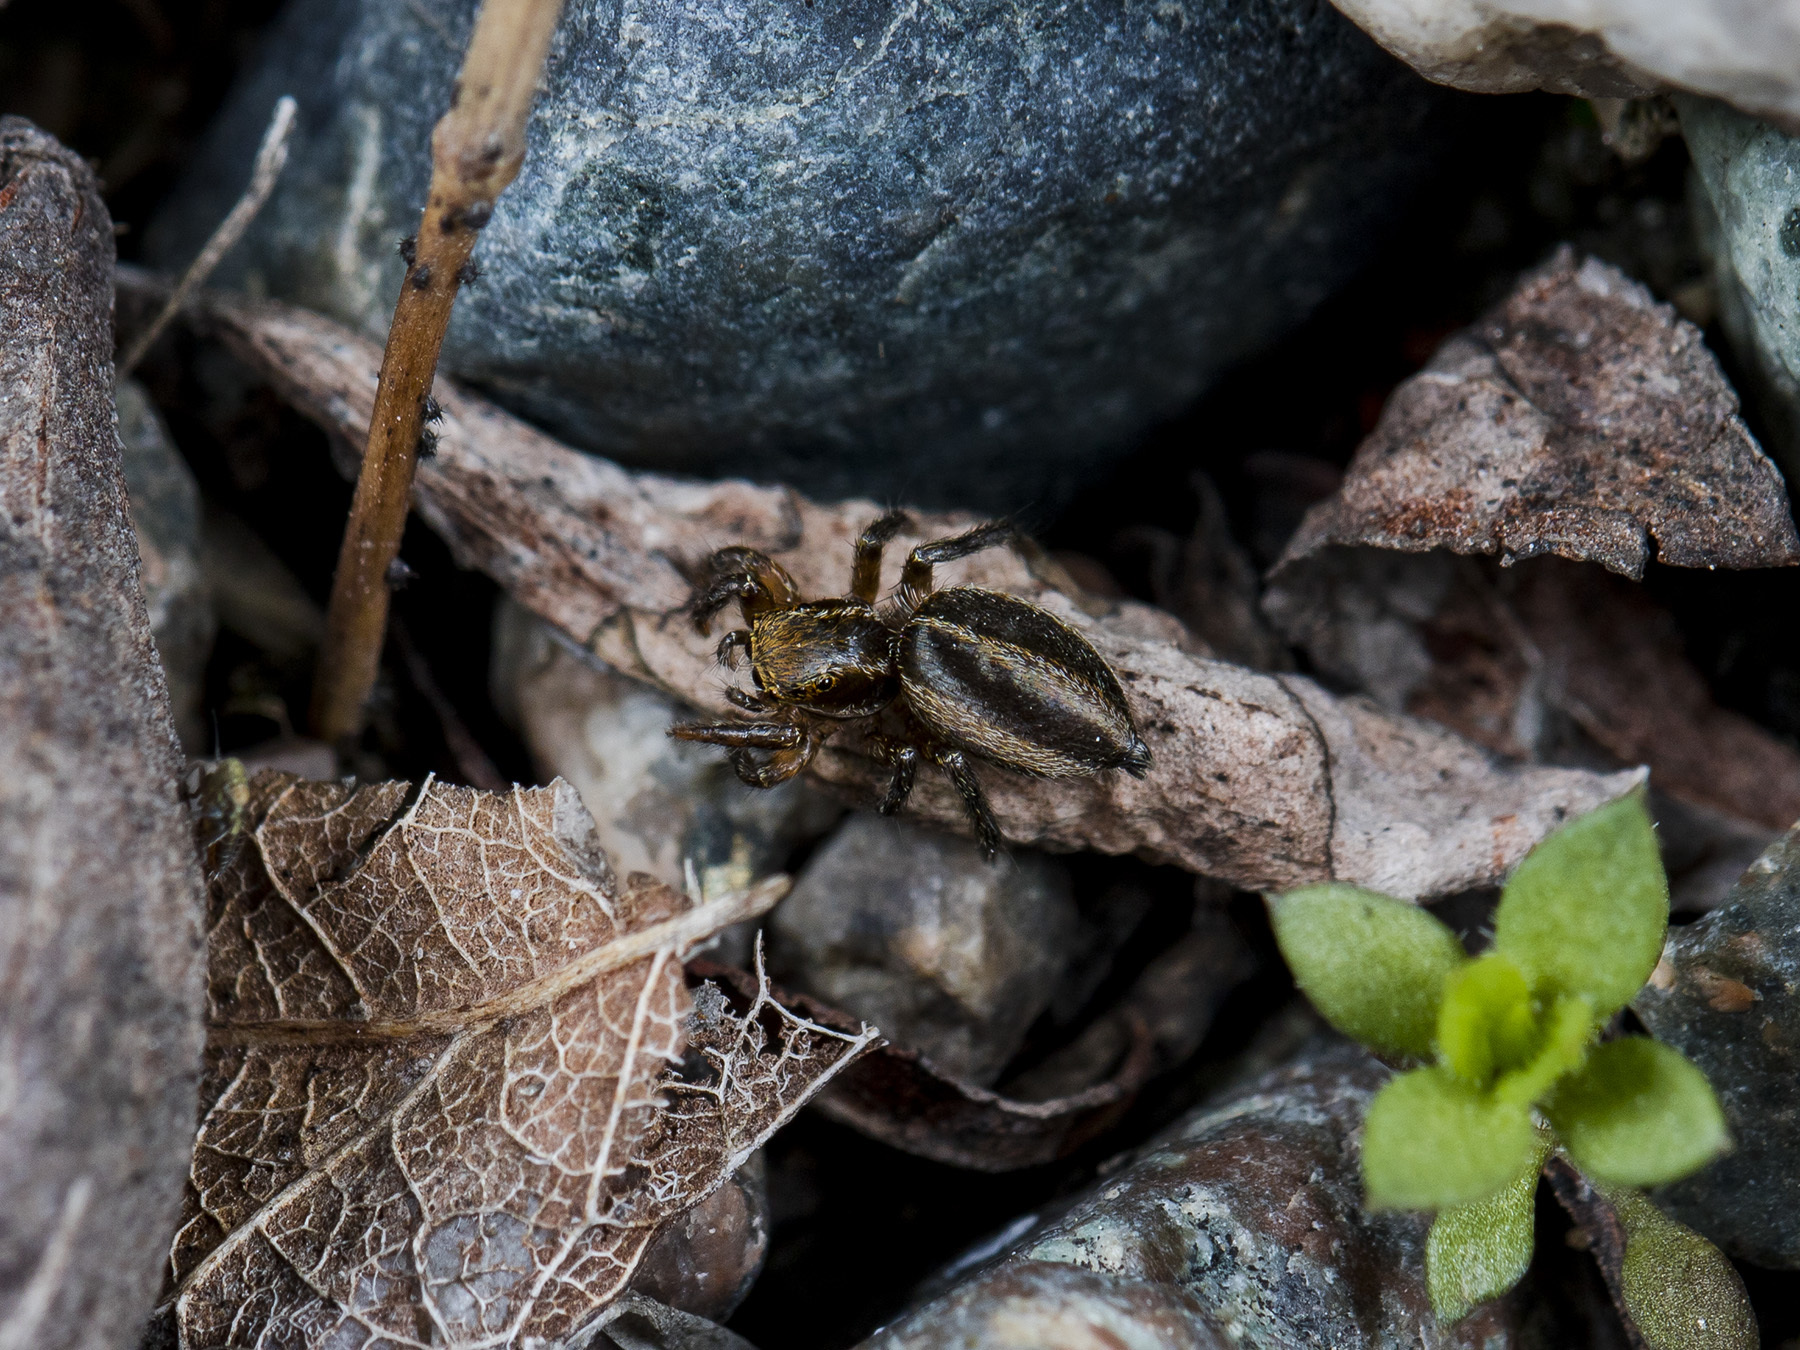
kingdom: Animalia
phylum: Arthropoda
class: Arachnida
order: Araneae
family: Salticidae
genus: Phlegra
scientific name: Phlegra fasciata
